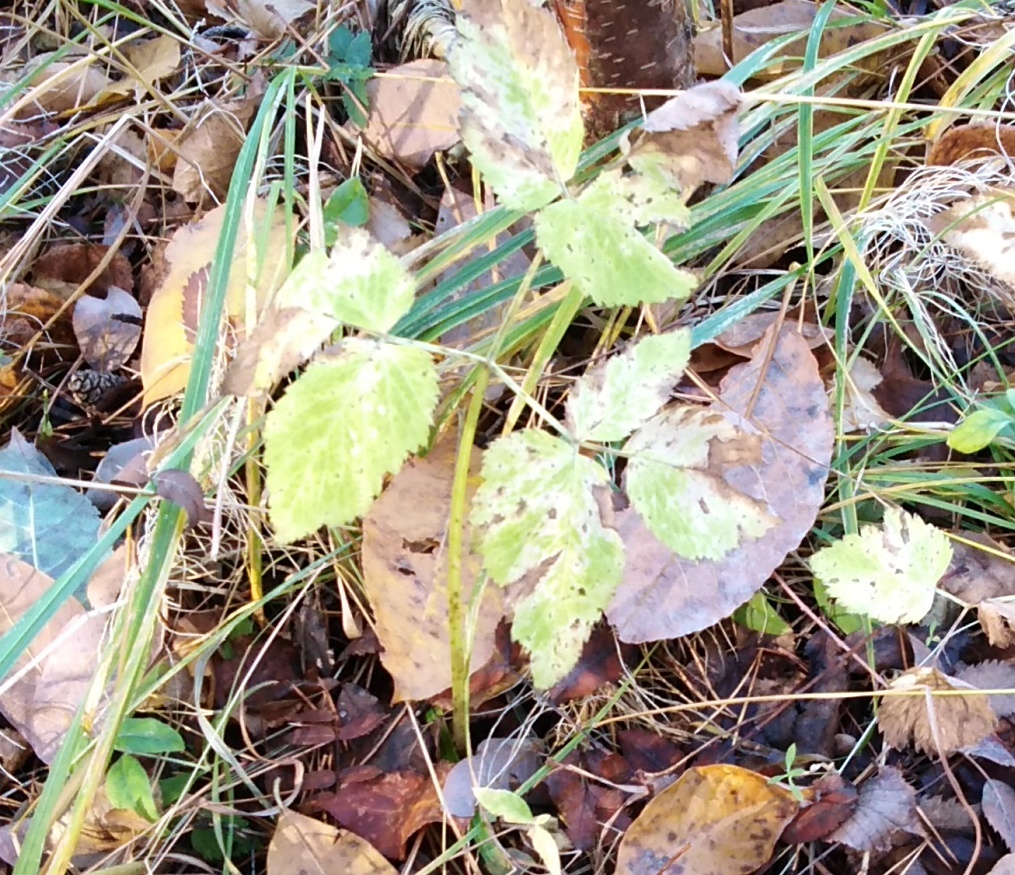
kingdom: Plantae
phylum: Tracheophyta
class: Magnoliopsida
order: Apiales
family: Apiaceae
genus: Aegopodium
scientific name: Aegopodium podagraria
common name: Ground-elder
